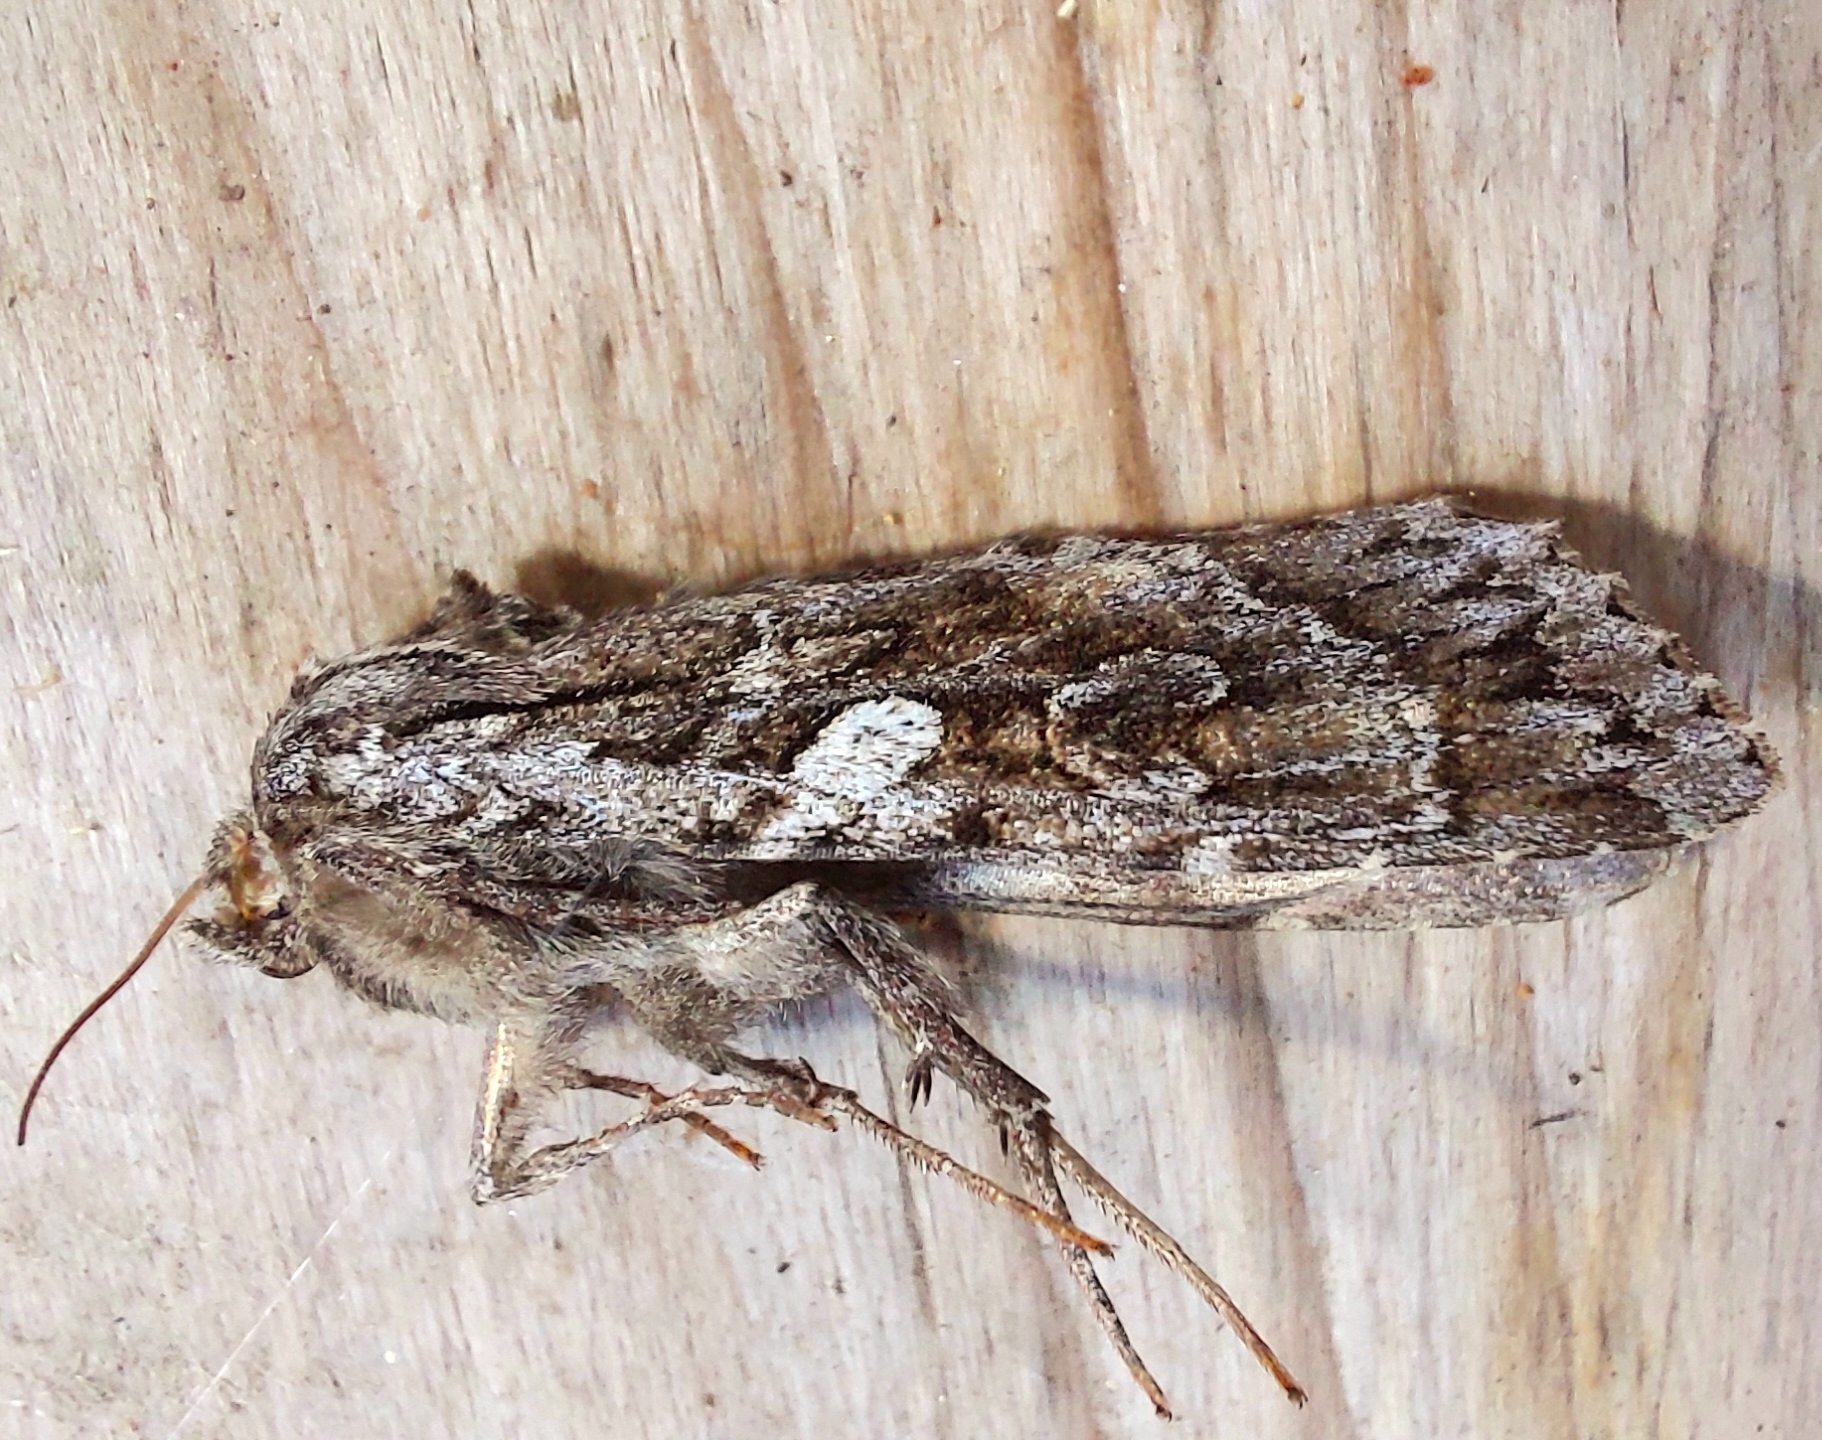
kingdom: Animalia
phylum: Arthropoda
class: Insecta
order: Lepidoptera
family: Noctuidae
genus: Eurois
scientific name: Eurois occulta
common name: Great brocade
